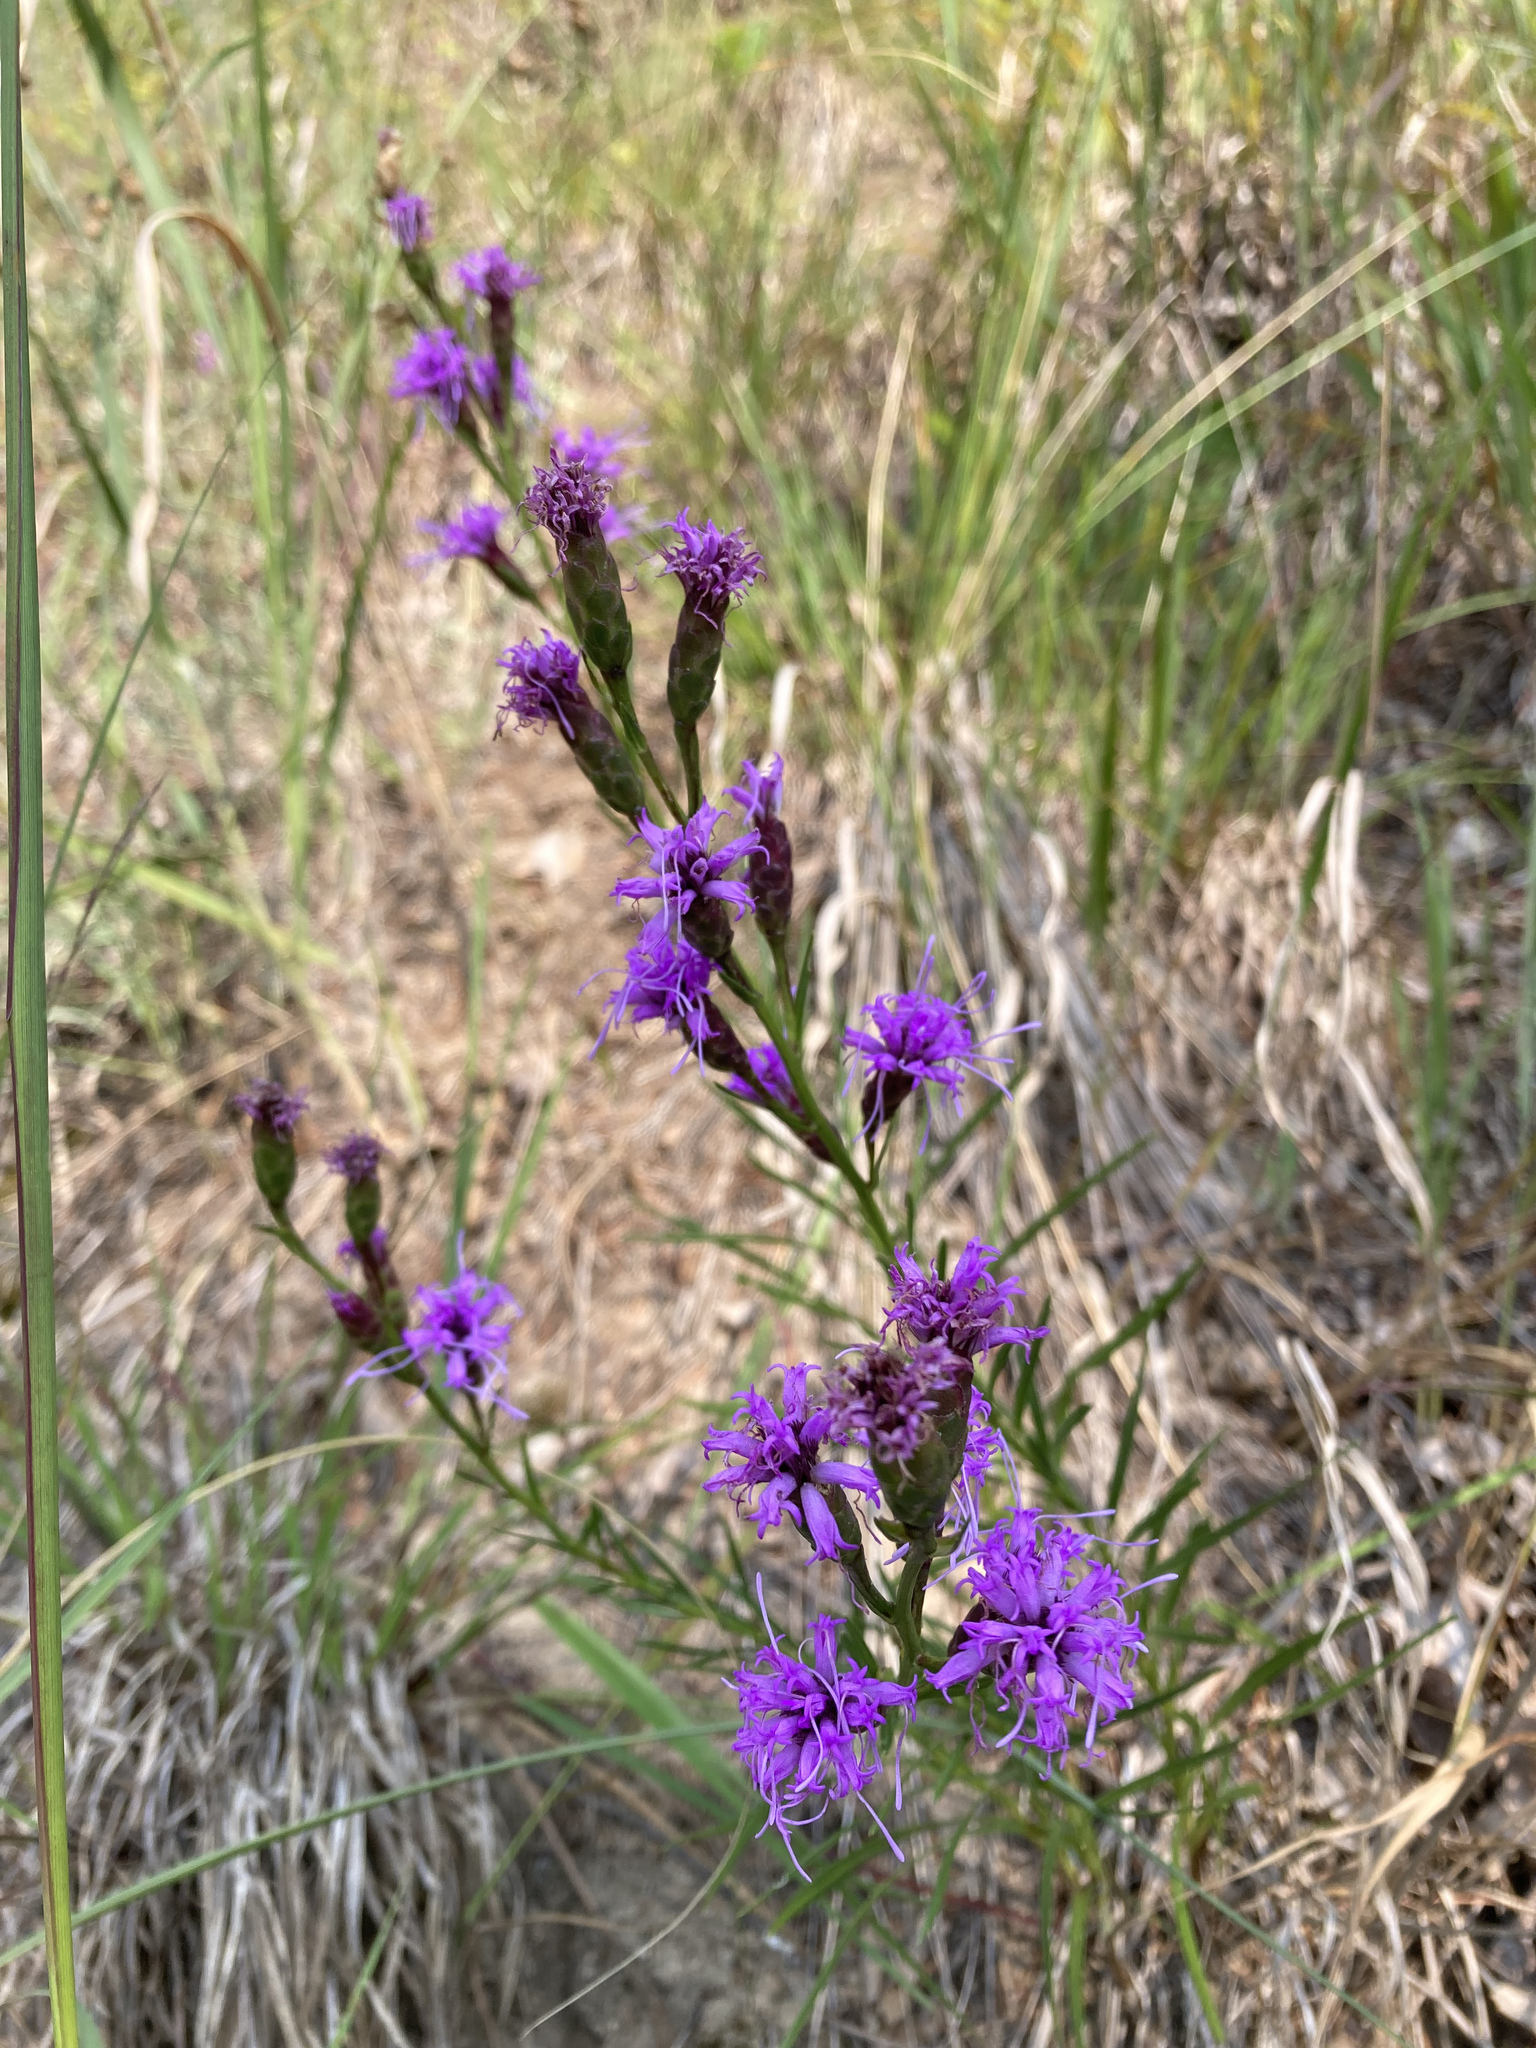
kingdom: Plantae
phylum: Tracheophyta
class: Magnoliopsida
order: Asterales
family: Asteraceae
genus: Liatris
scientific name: Liatris cylindracea
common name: Few-head blazingstar
